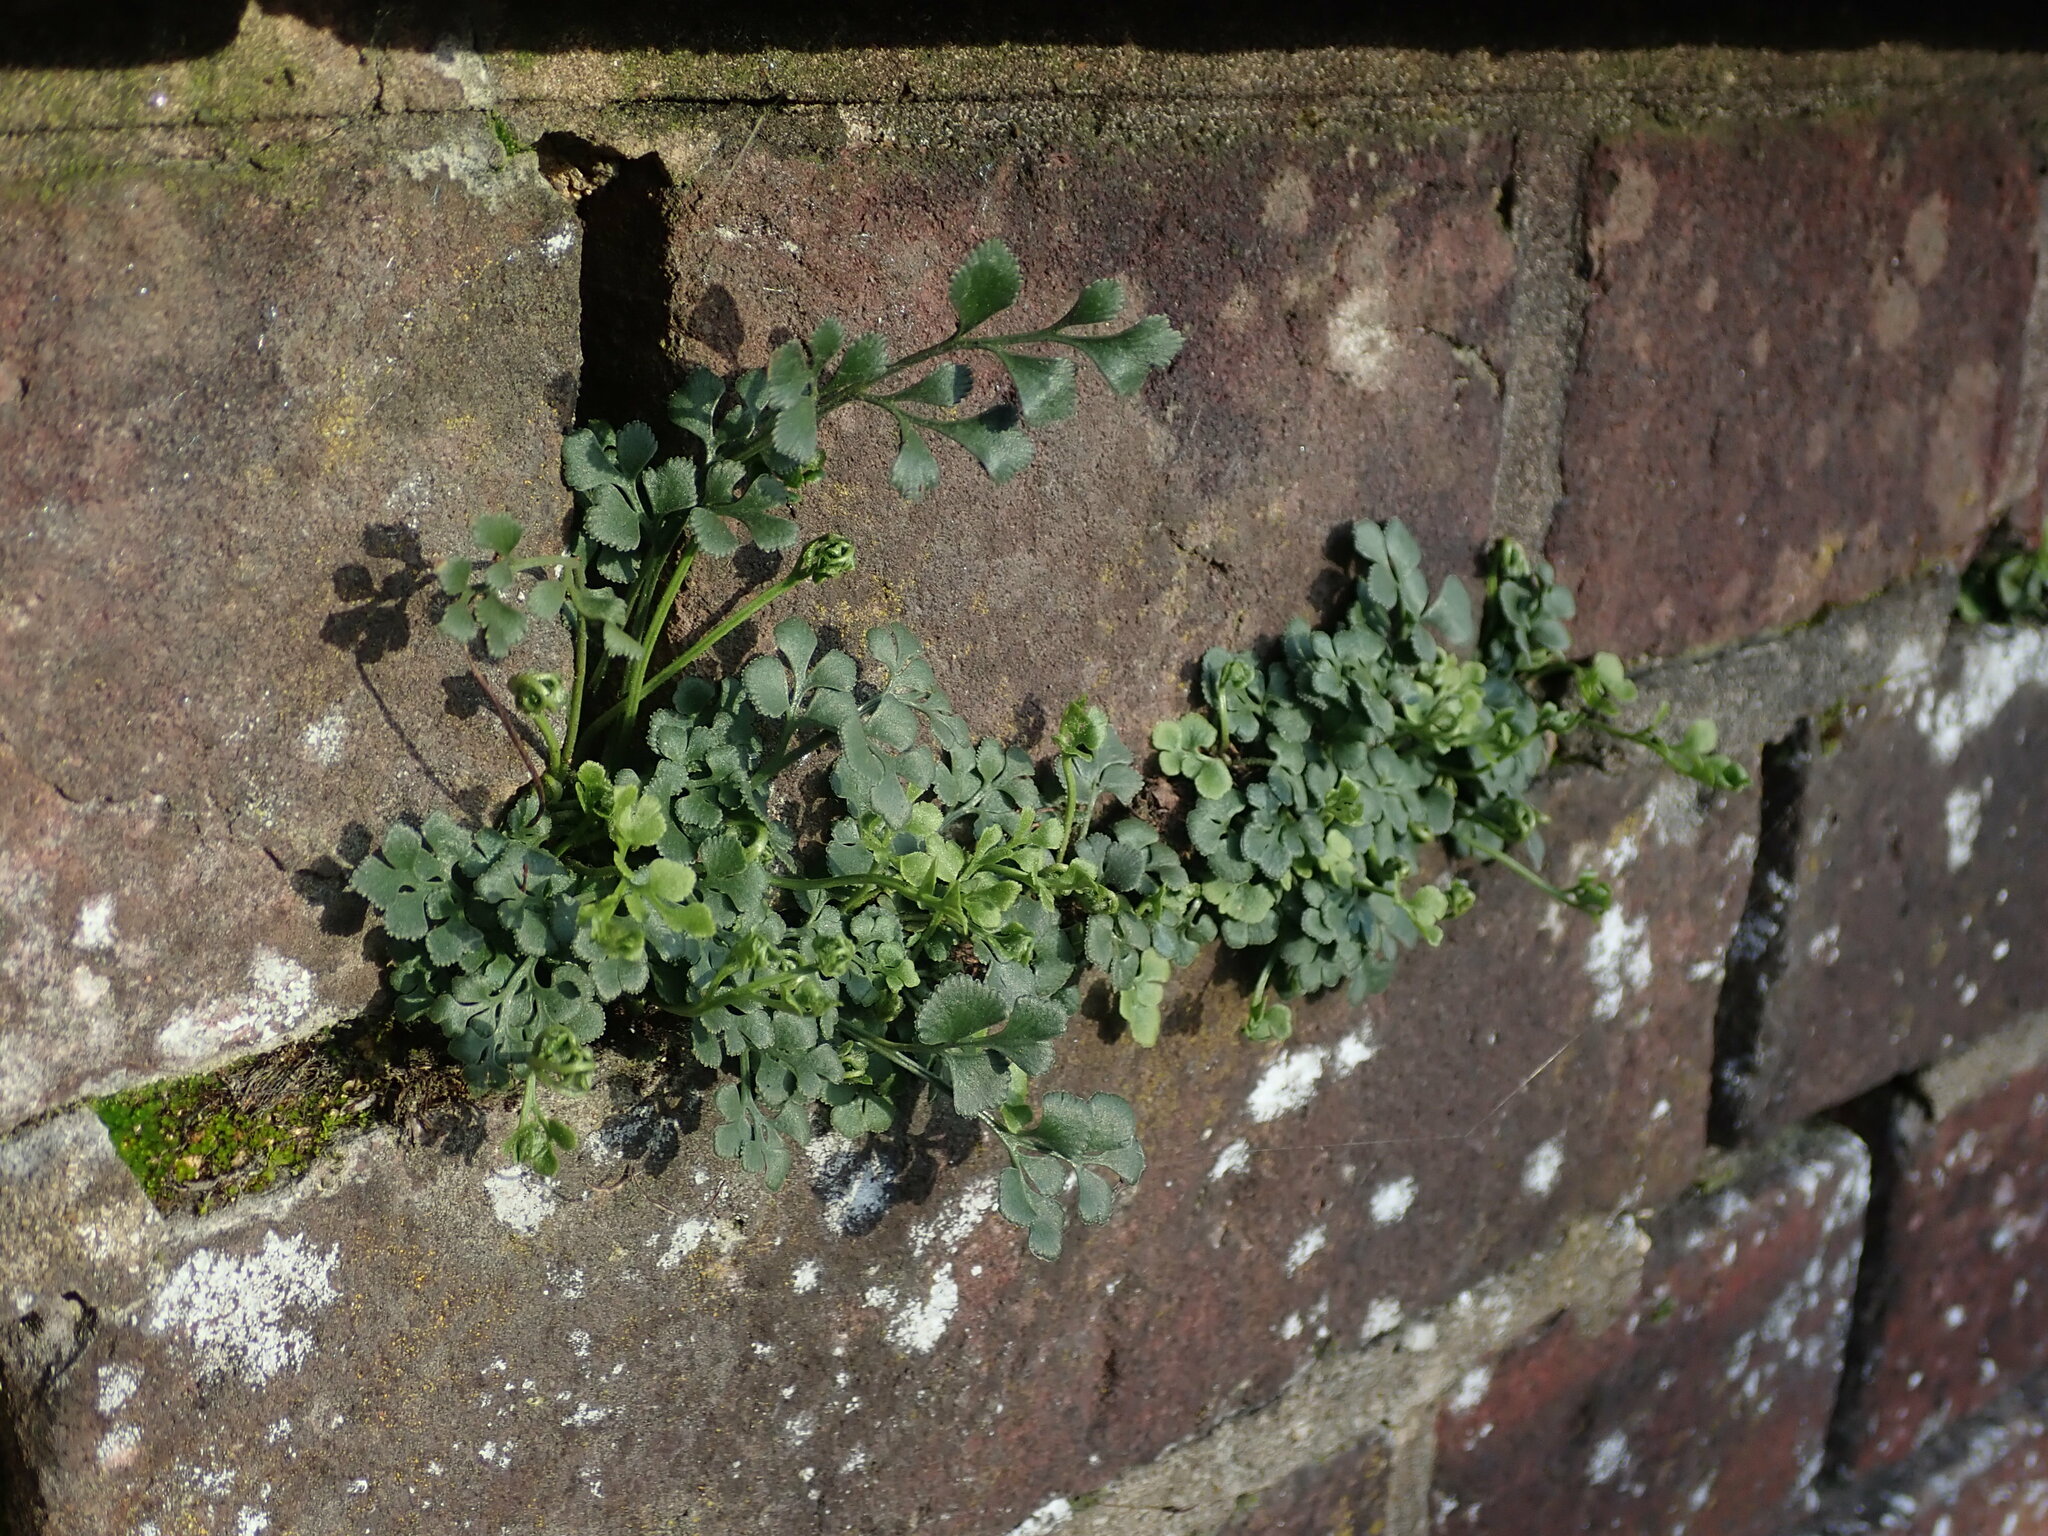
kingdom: Plantae
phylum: Tracheophyta
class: Polypodiopsida
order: Polypodiales
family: Aspleniaceae
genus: Asplenium
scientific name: Asplenium ruta-muraria
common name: Wall-rue
